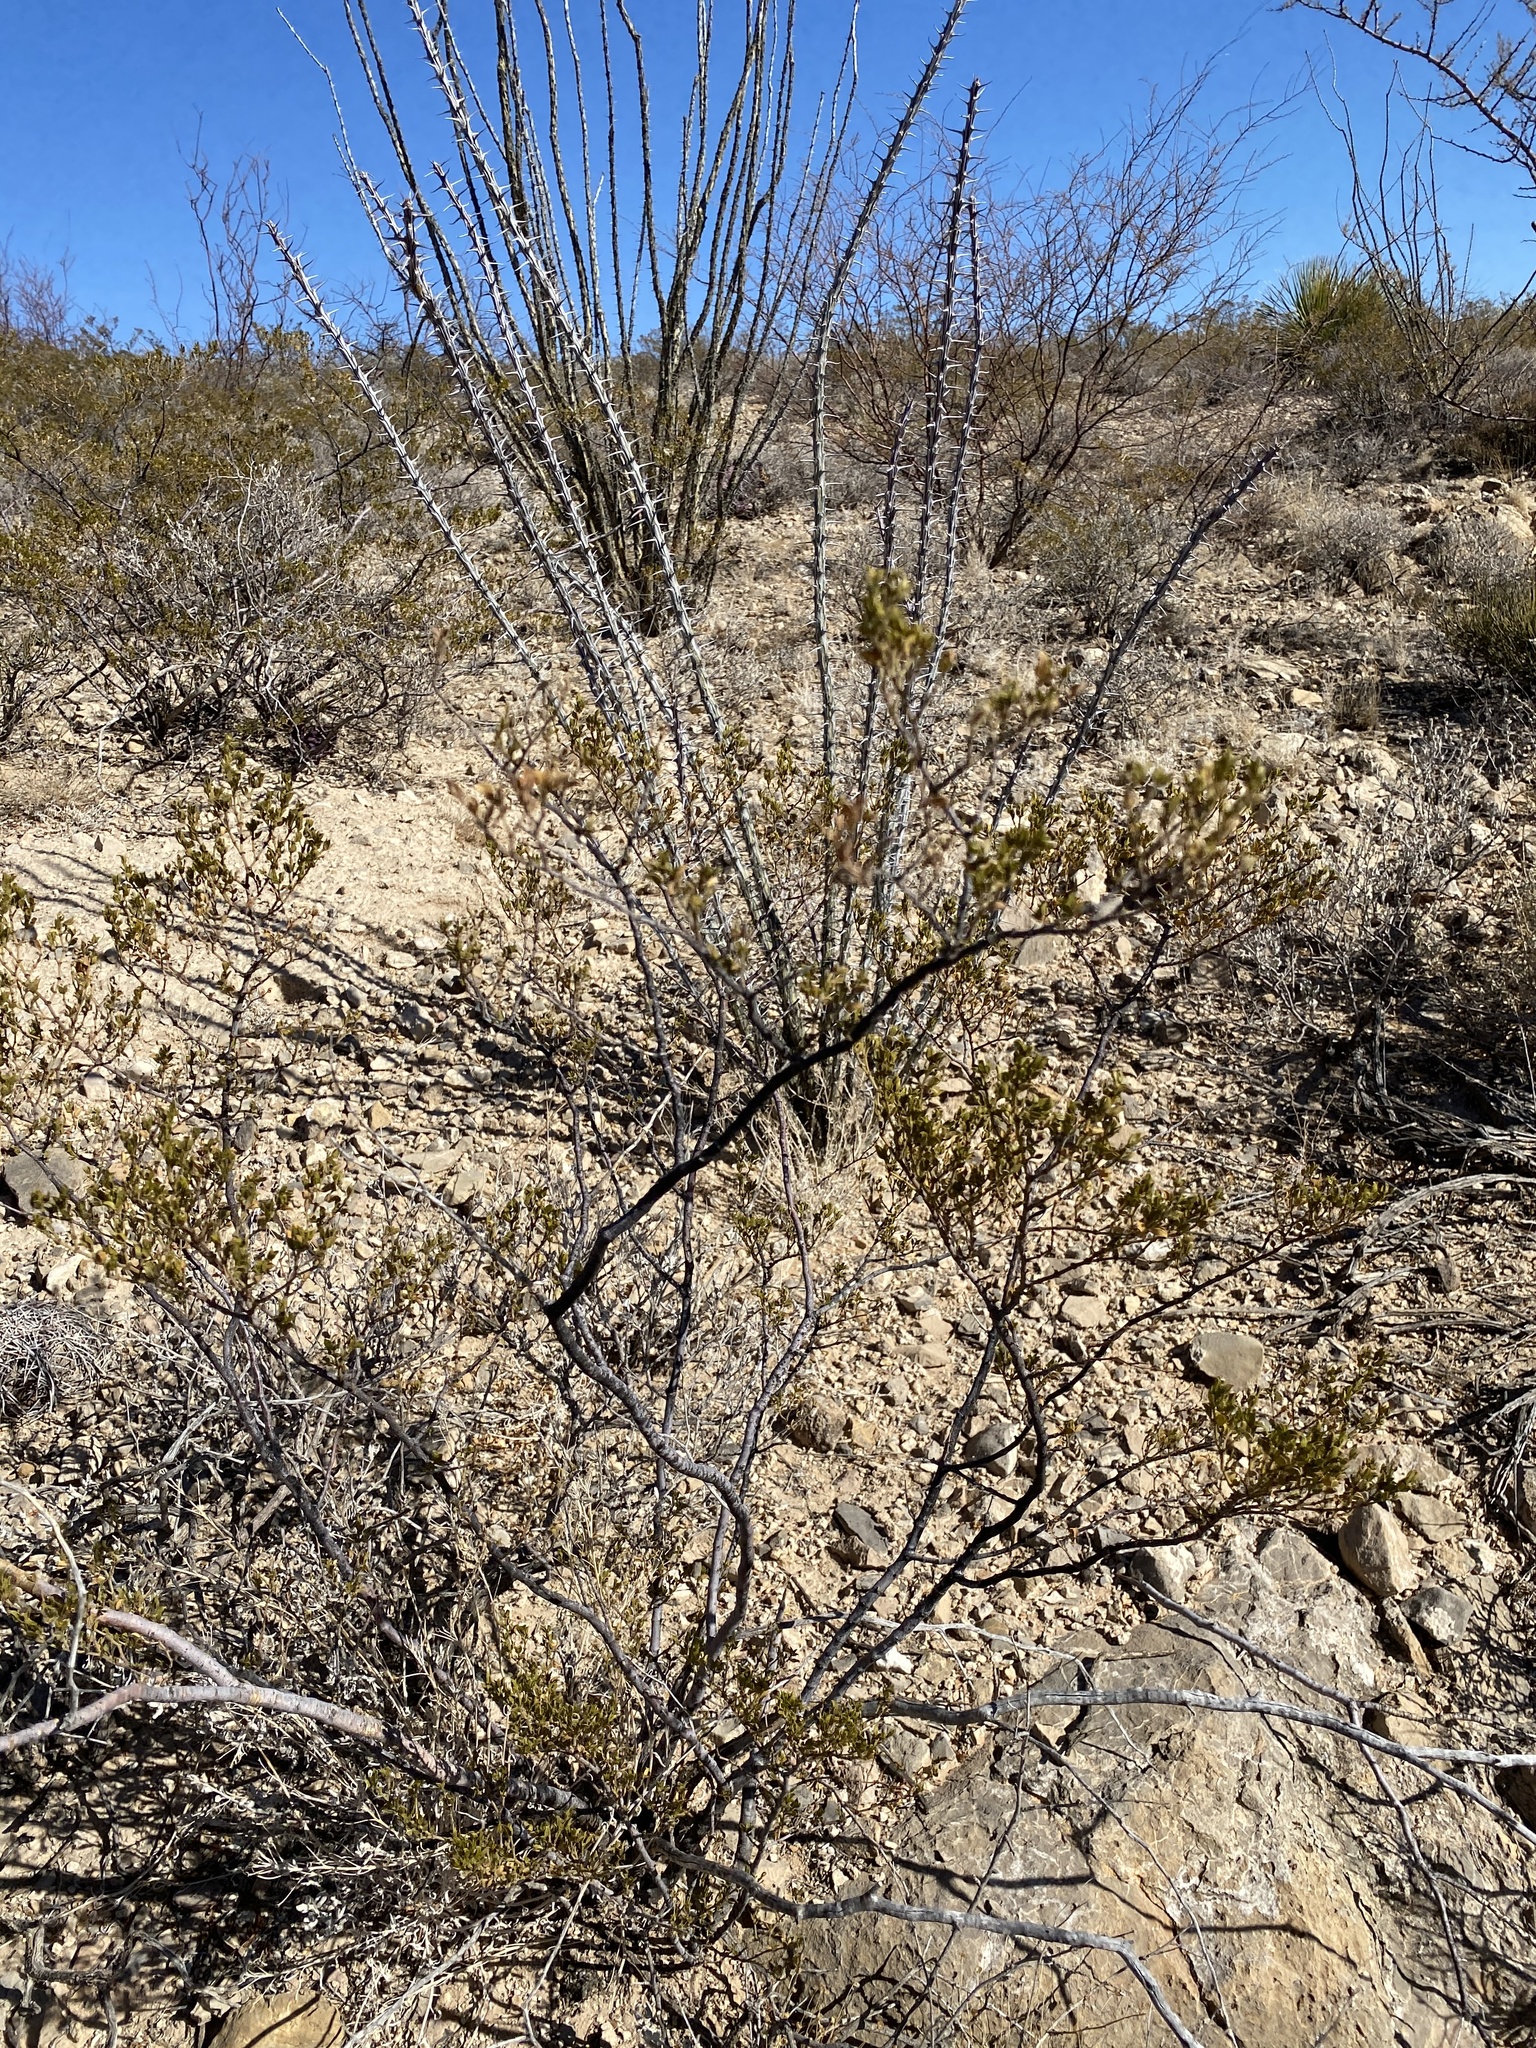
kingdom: Plantae
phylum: Tracheophyta
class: Magnoliopsida
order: Zygophyllales
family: Zygophyllaceae
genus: Larrea
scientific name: Larrea tridentata
